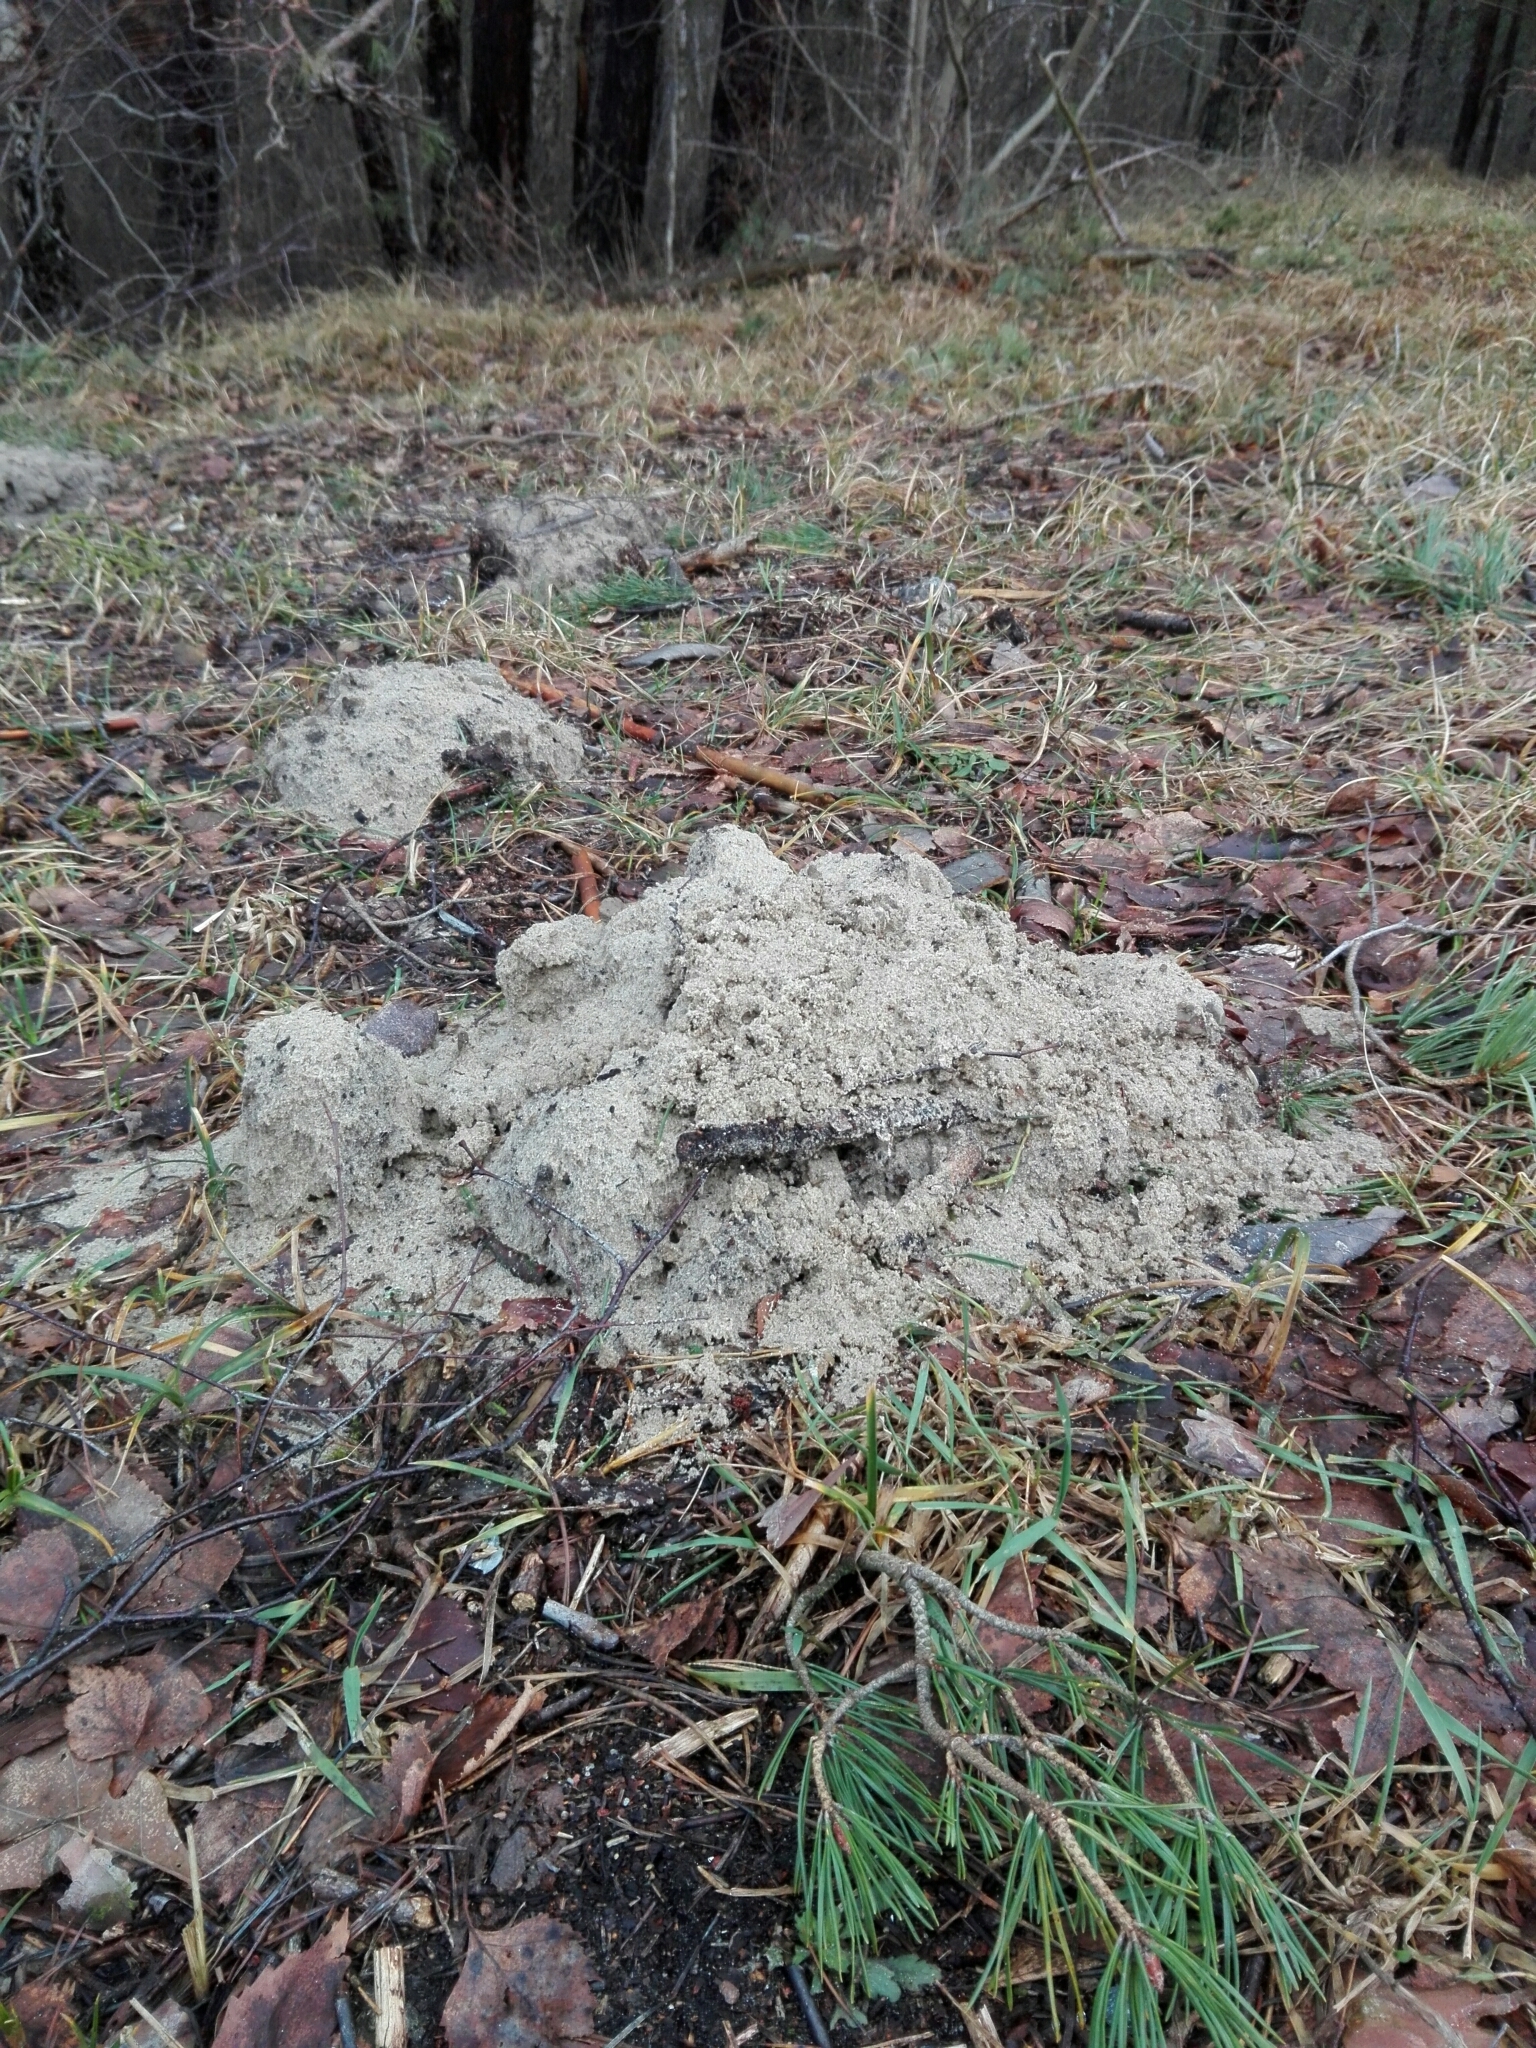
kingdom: Animalia
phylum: Chordata
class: Mammalia
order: Soricomorpha
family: Talpidae
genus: Talpa
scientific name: Talpa europaea
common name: European mole
